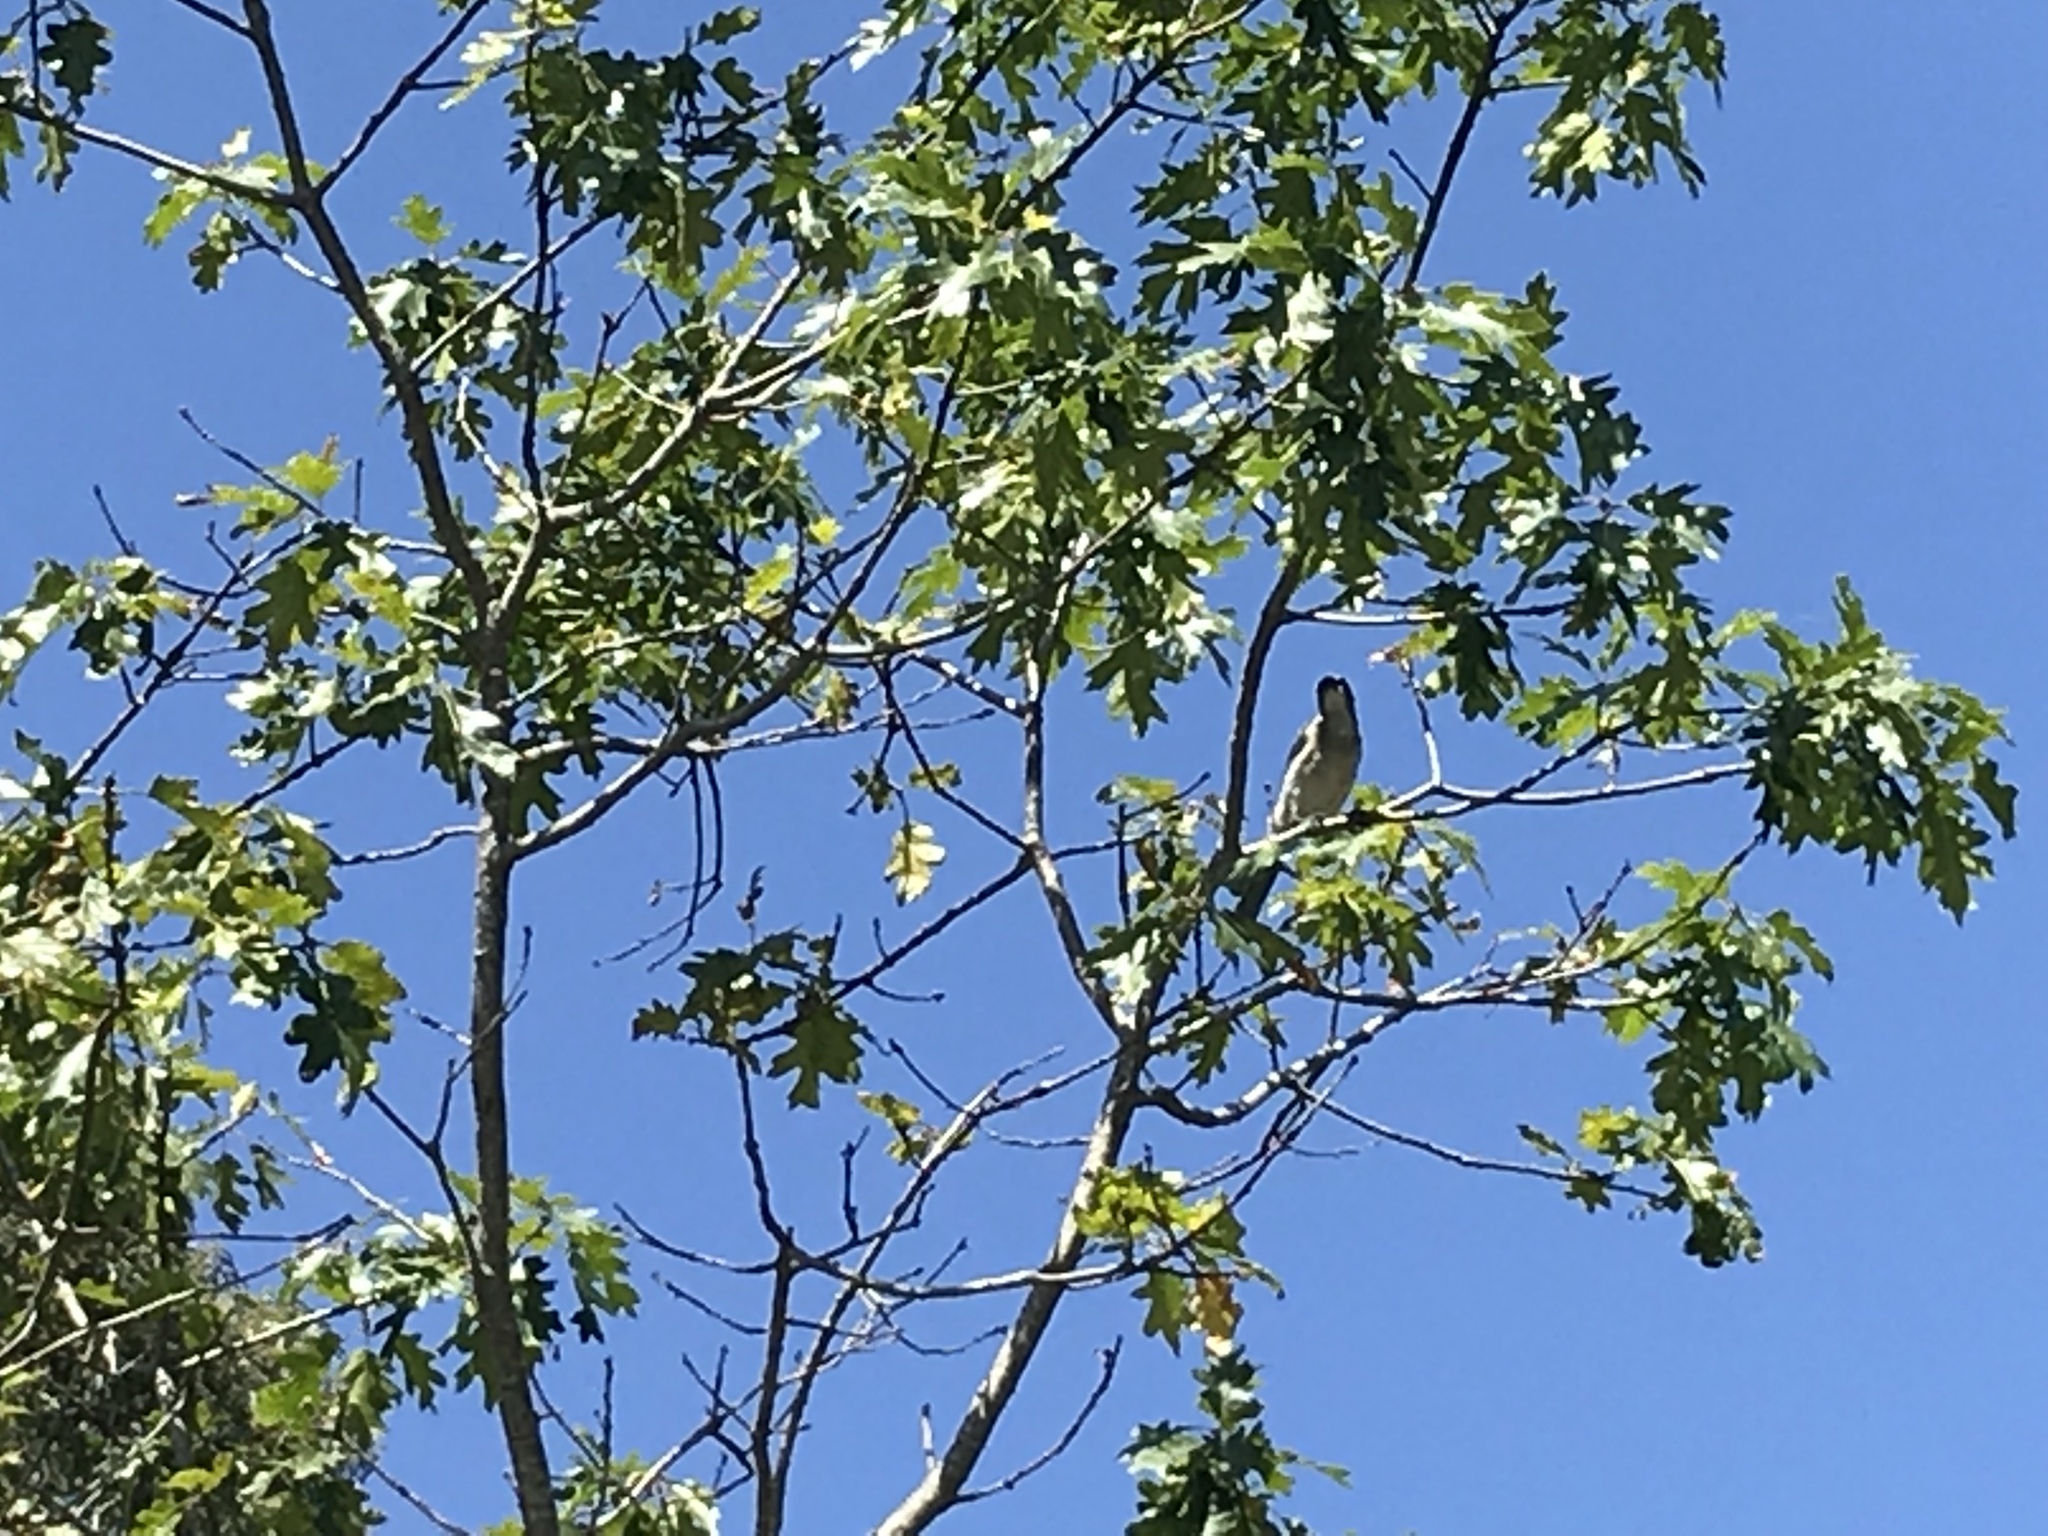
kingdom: Animalia
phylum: Chordata
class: Aves
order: Passeriformes
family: Corvidae
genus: Aphelocoma
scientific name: Aphelocoma californica
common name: California scrub-jay
